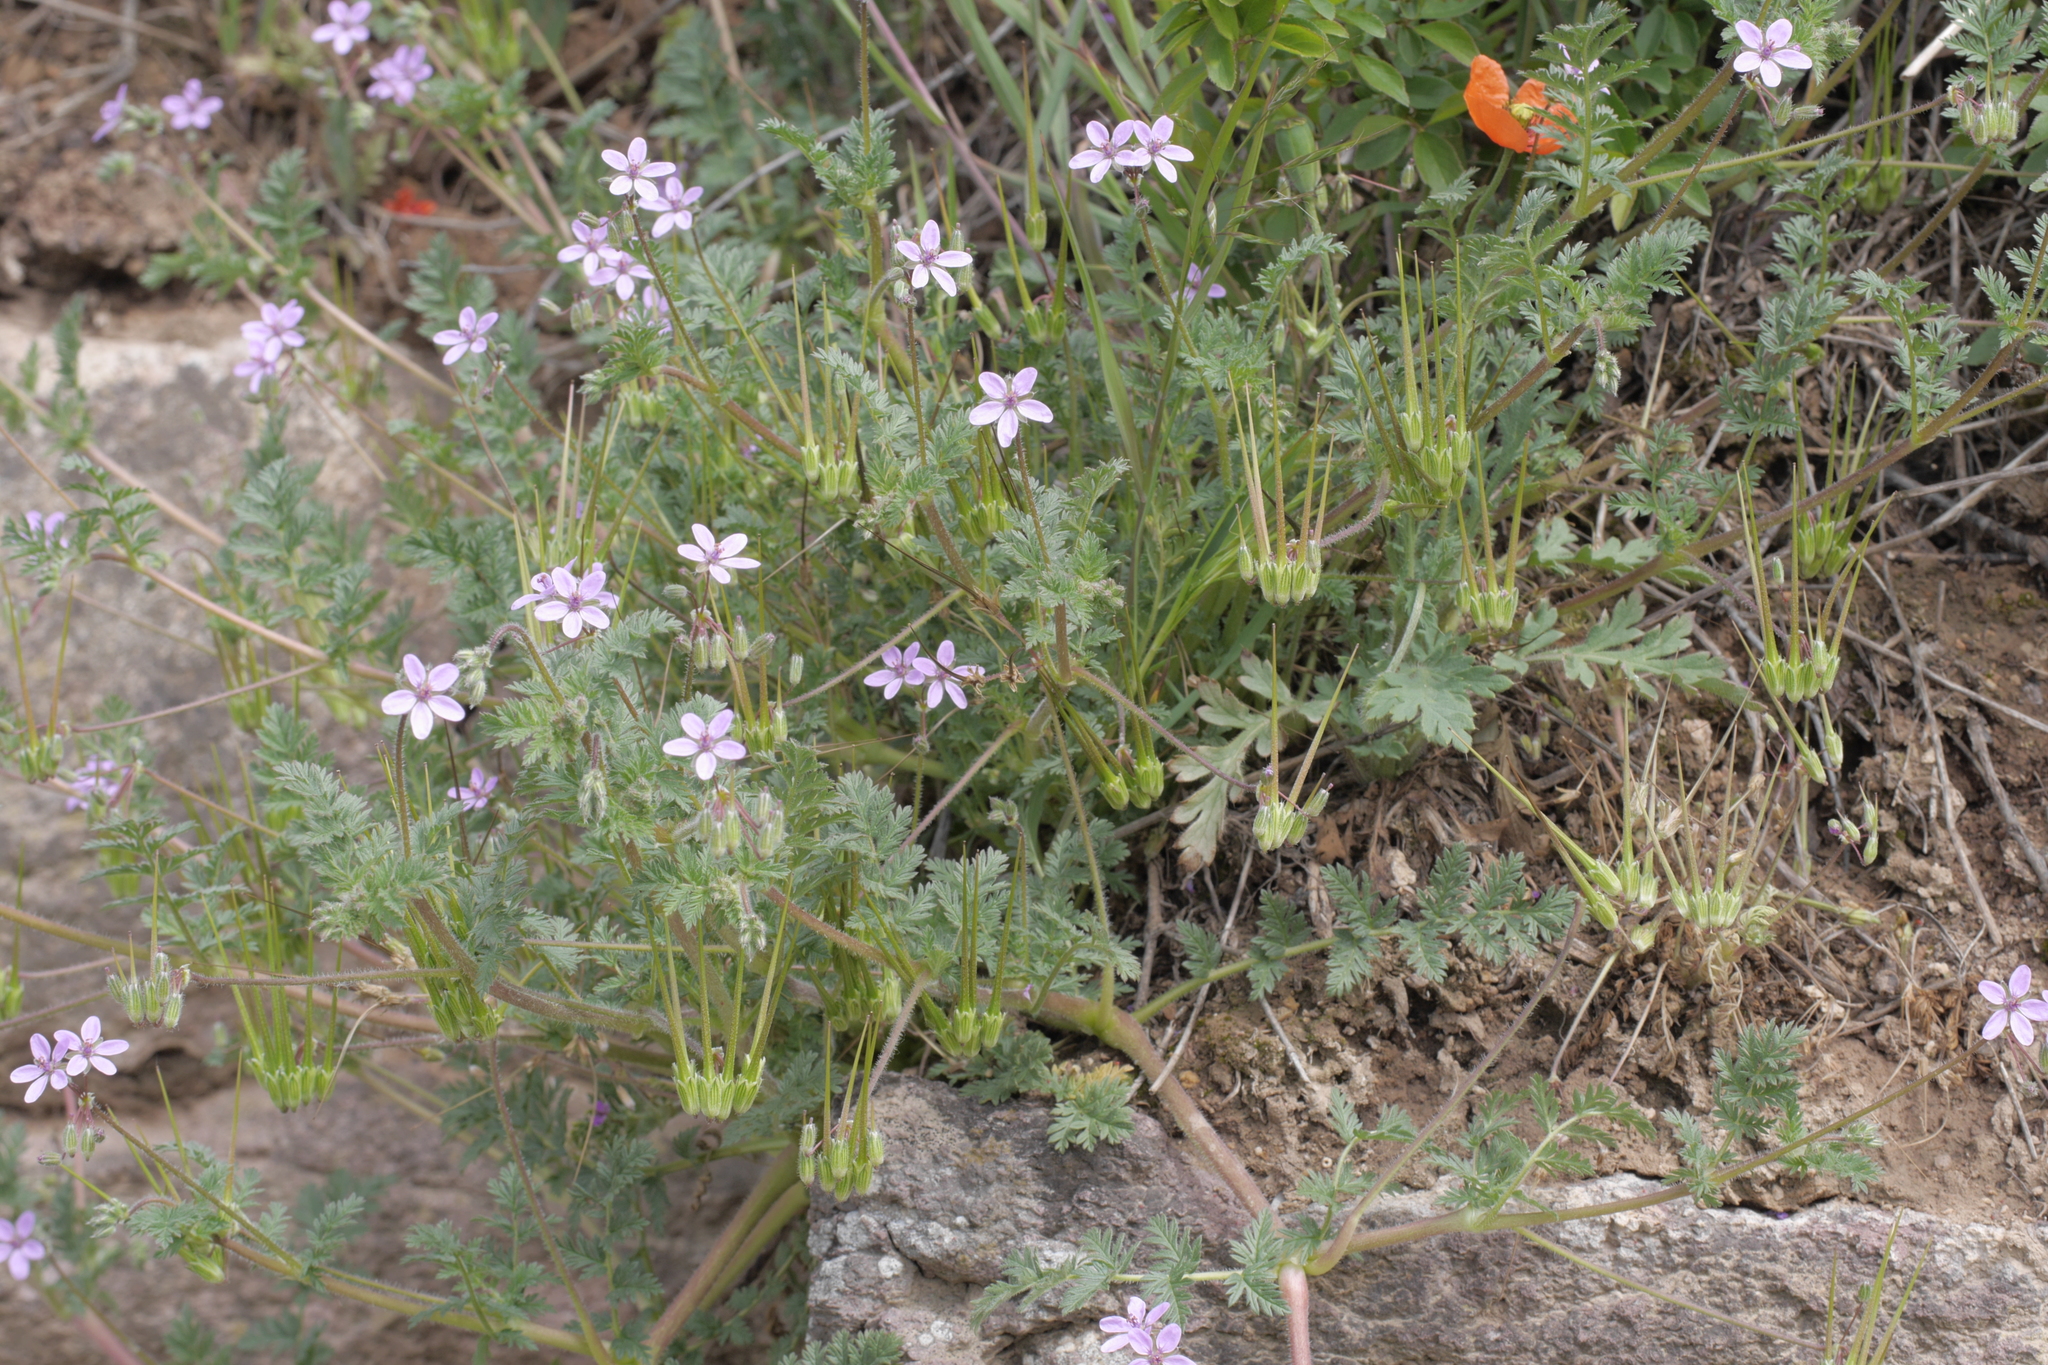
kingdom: Plantae
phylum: Tracheophyta
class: Magnoliopsida
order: Geraniales
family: Geraniaceae
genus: Erodium
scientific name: Erodium cicutarium
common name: Common stork's-bill
